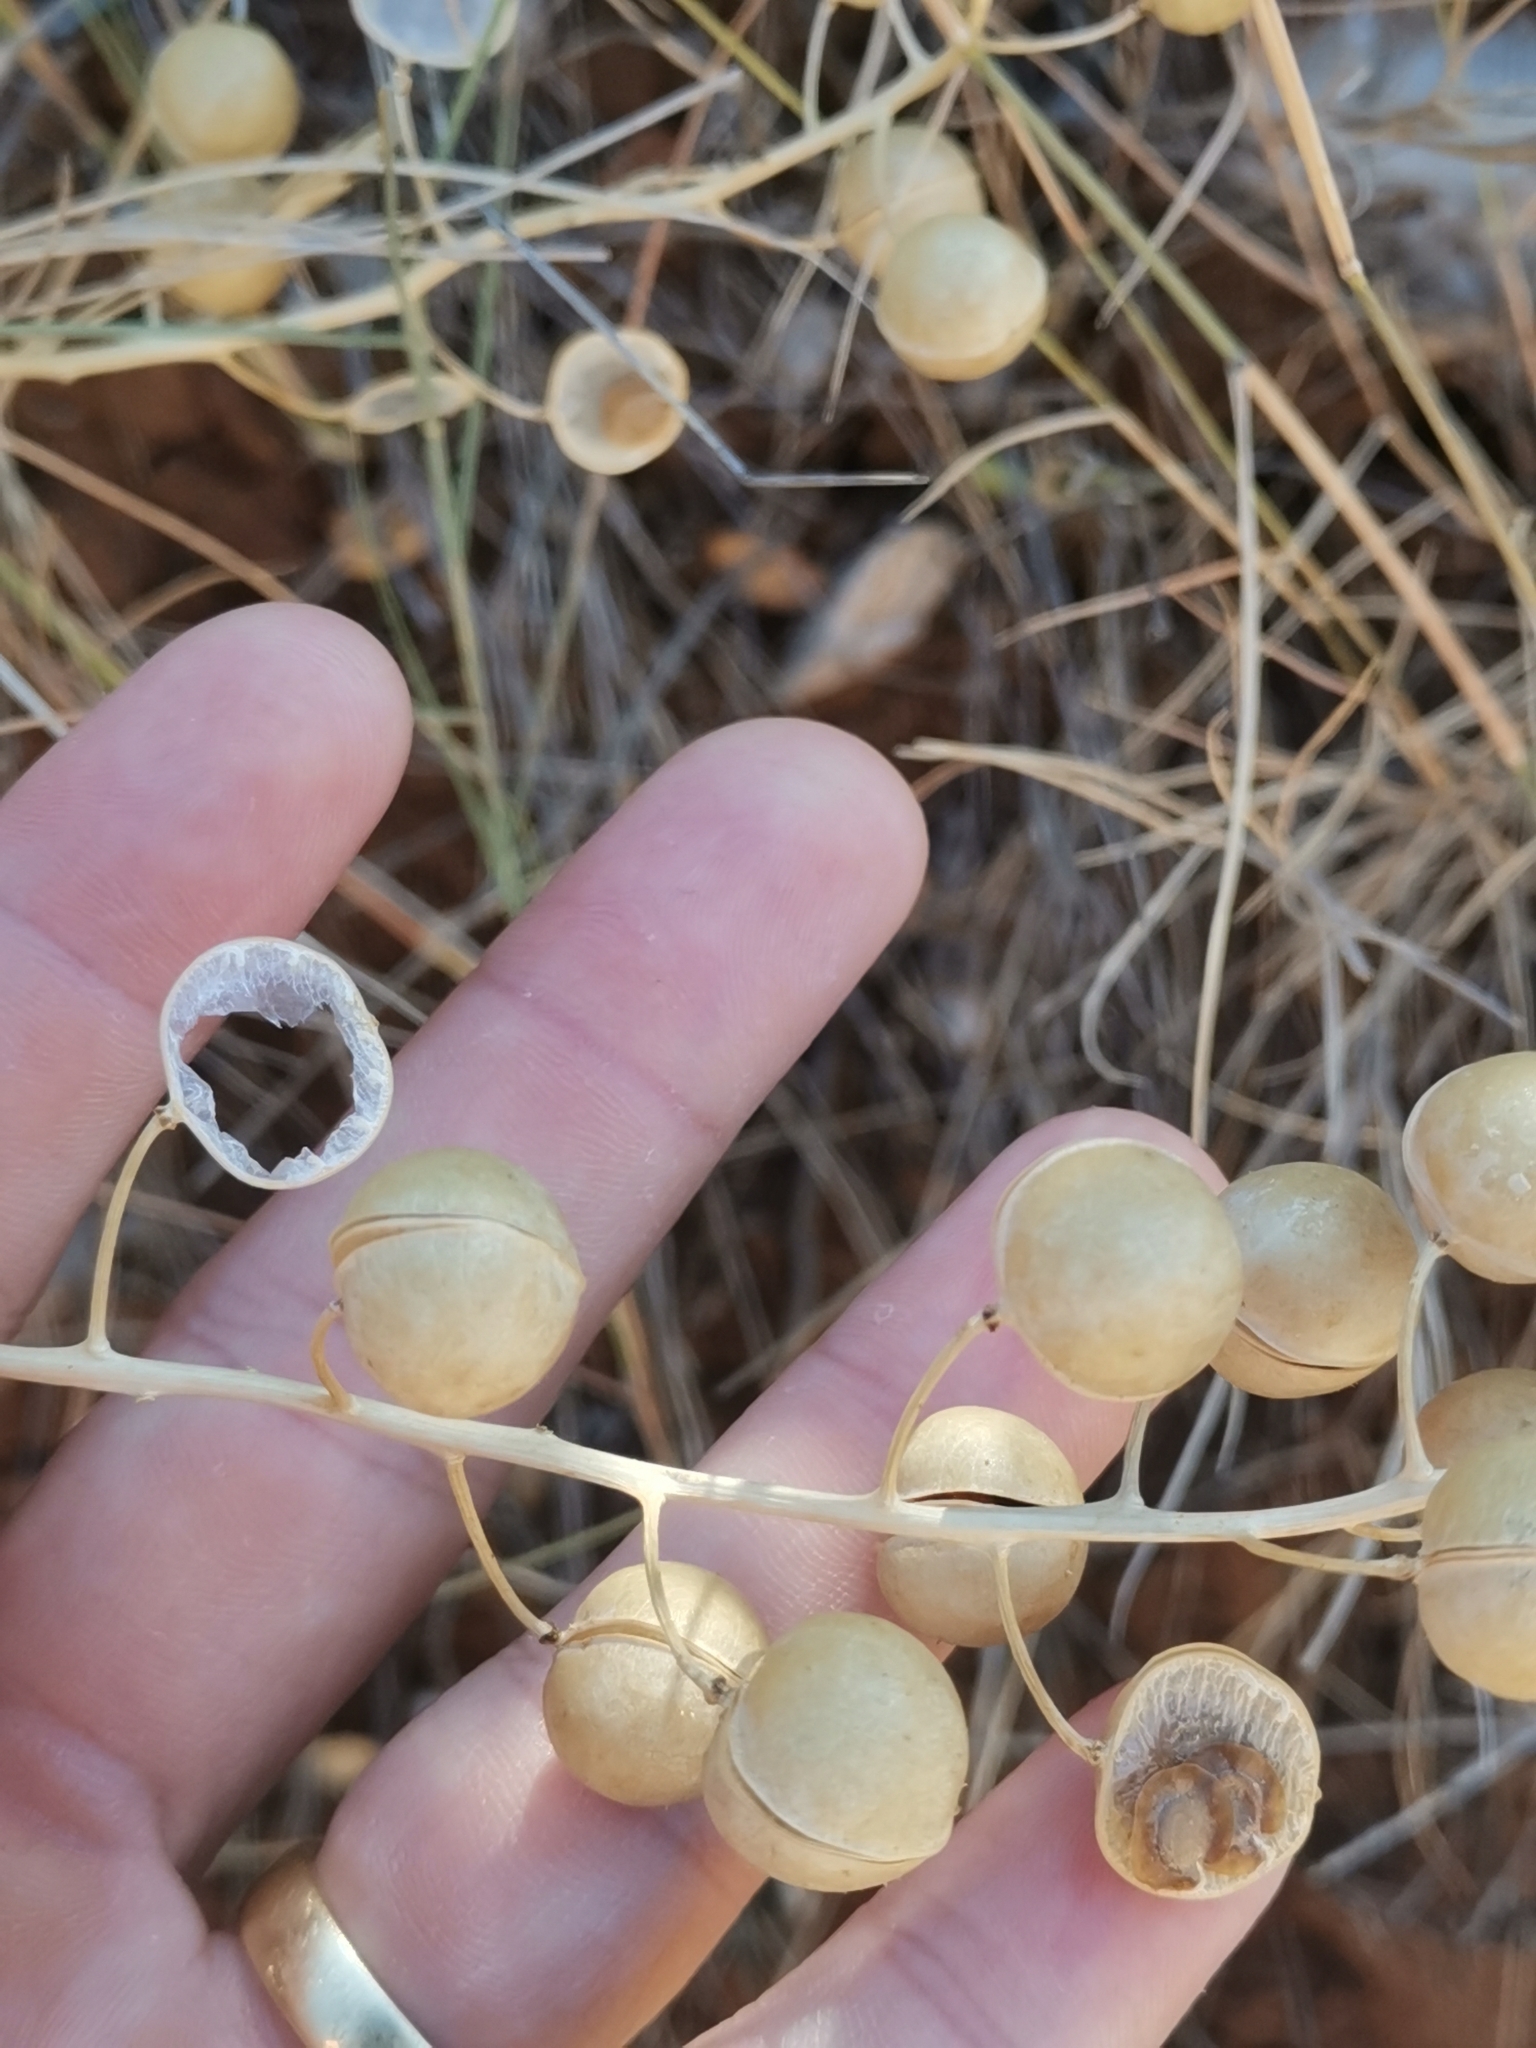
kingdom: Plantae
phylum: Tracheophyta
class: Magnoliopsida
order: Brassicales
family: Brassicaceae
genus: Alyssoides
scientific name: Alyssoides utriculata
